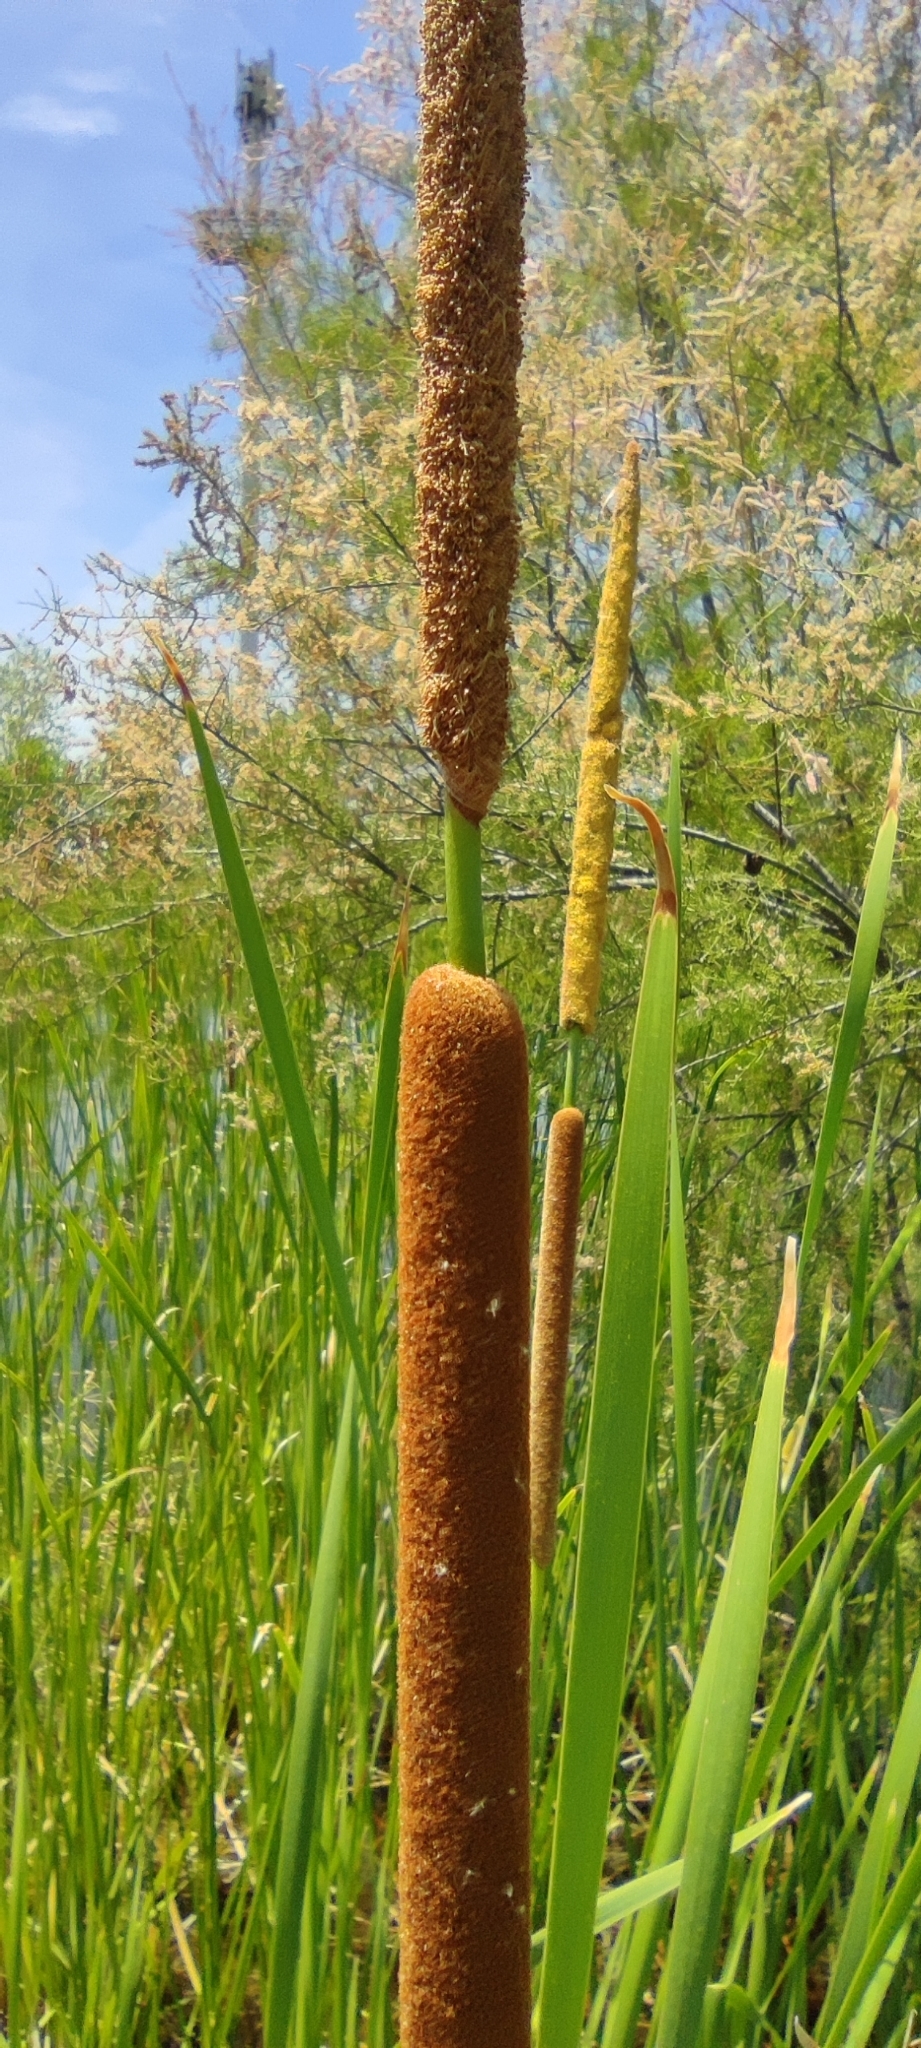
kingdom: Plantae
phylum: Tracheophyta
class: Liliopsida
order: Poales
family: Typhaceae
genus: Typha
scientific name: Typha domingensis
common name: Southern cattail
